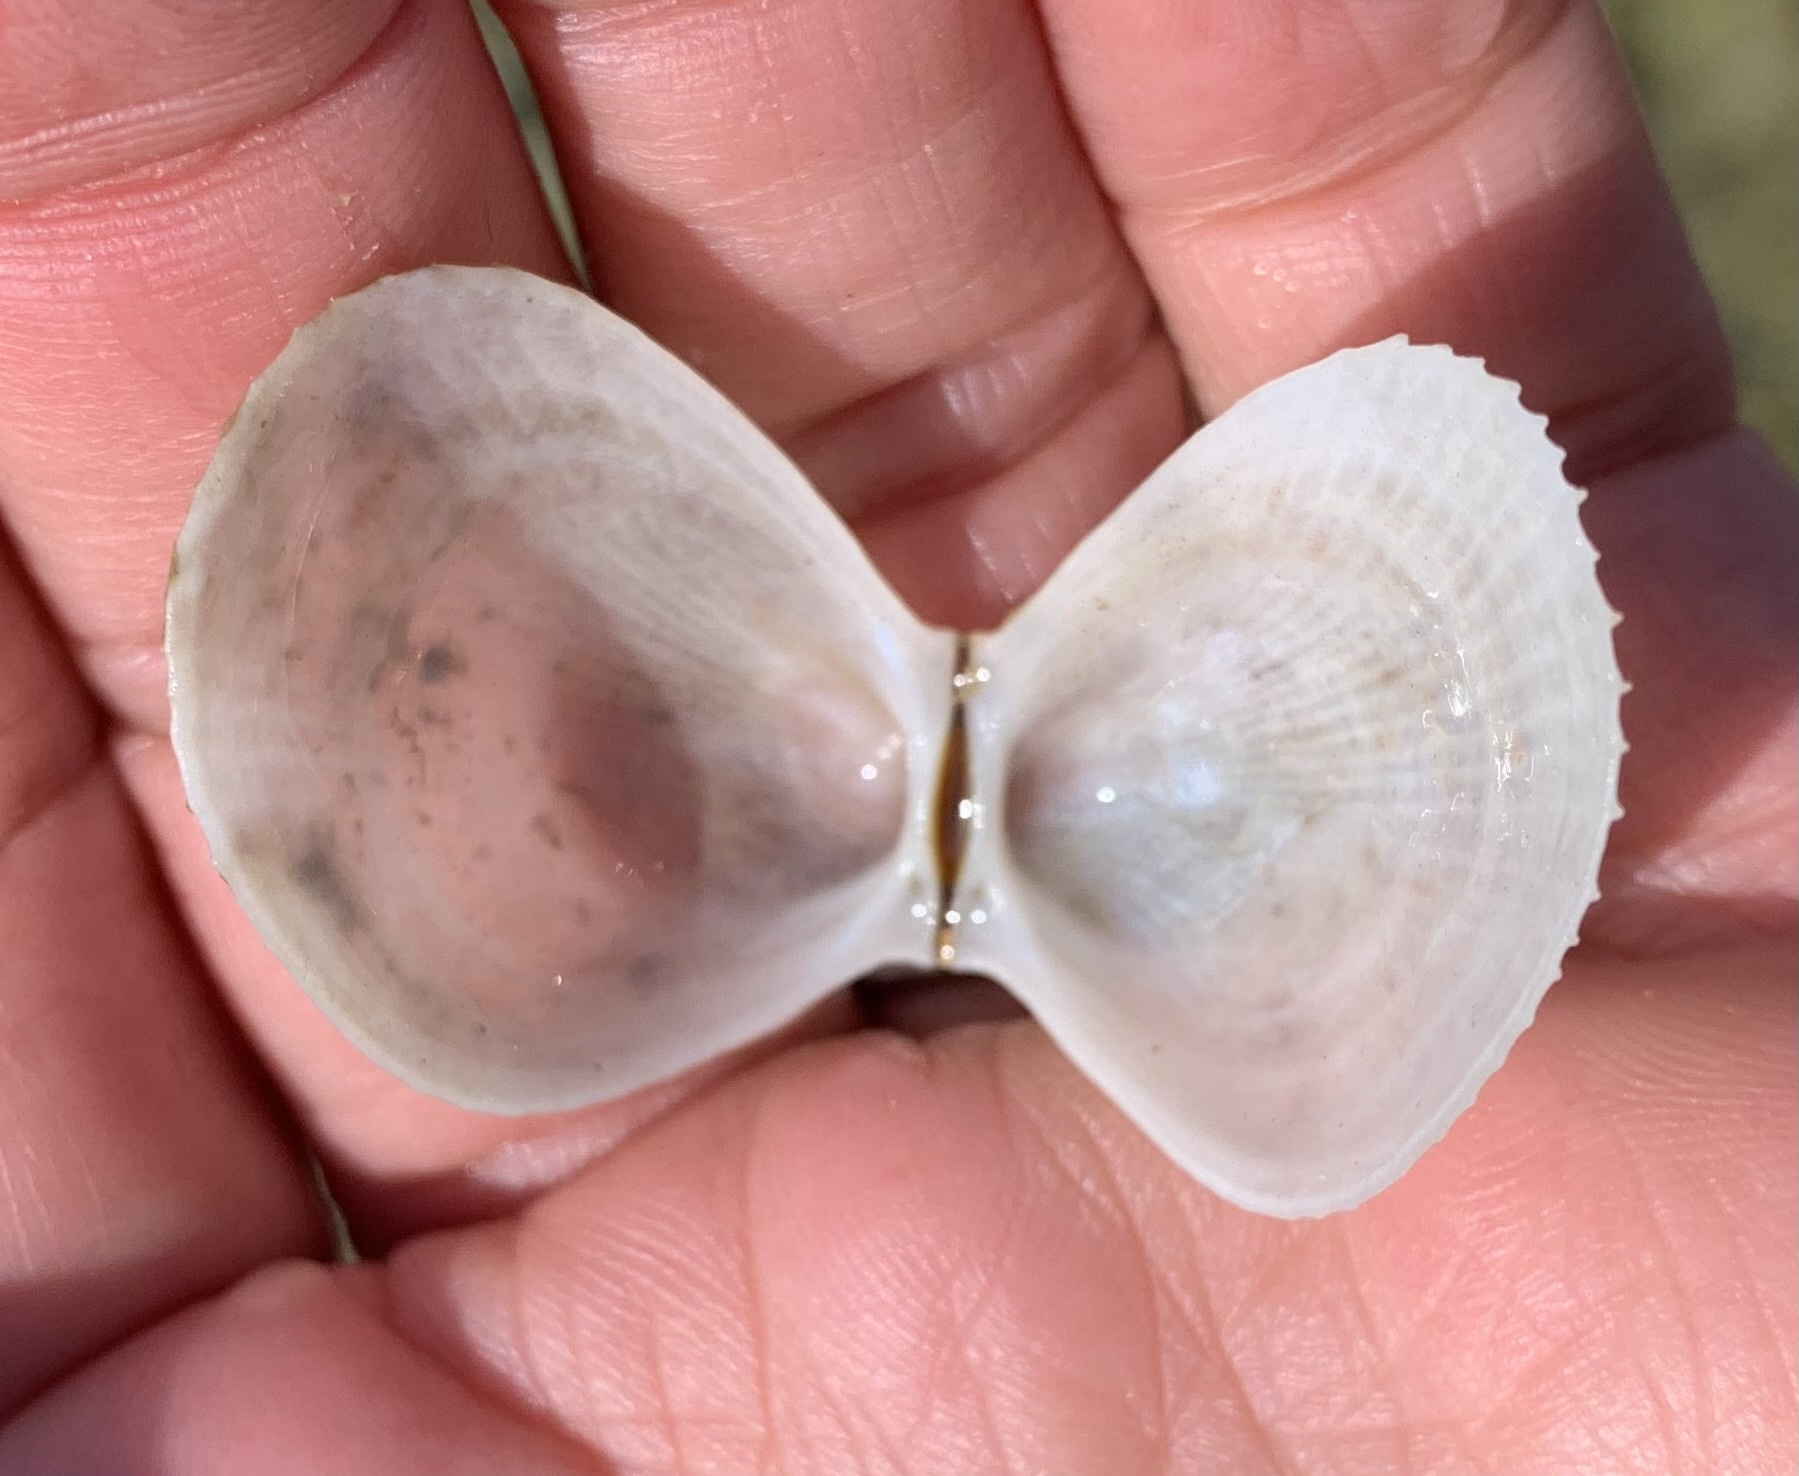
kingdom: Animalia
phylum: Mollusca
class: Bivalvia
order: Limida
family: Limidae
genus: Limaria
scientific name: Limaria tuberculata
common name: File shell
